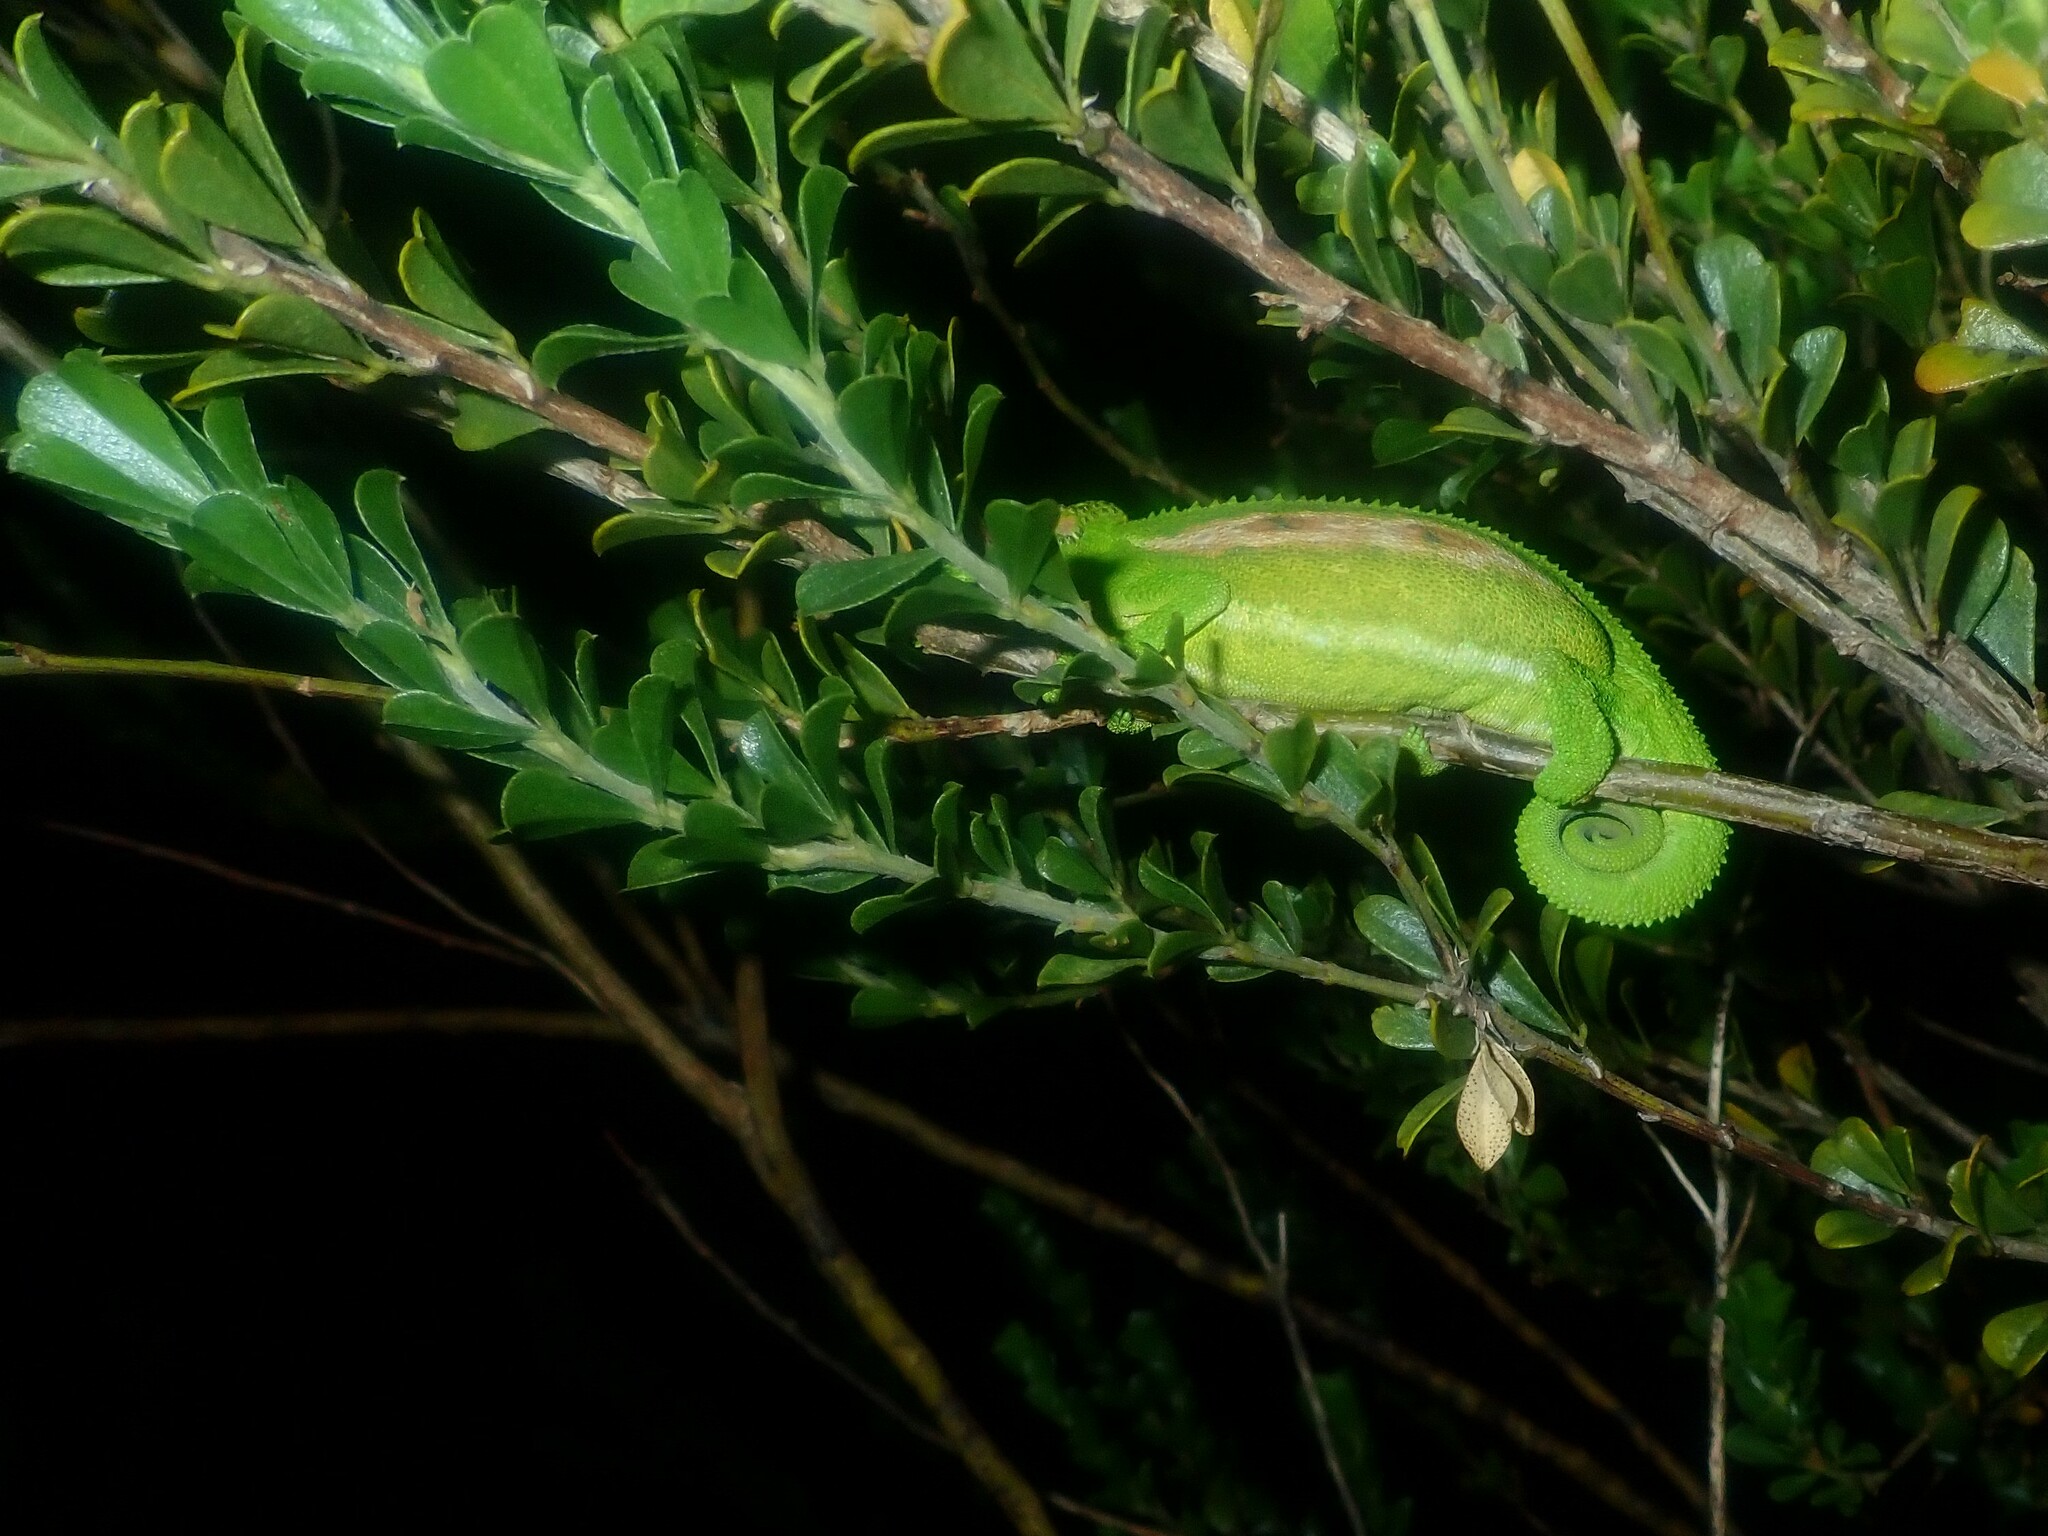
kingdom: Animalia
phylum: Chordata
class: Squamata
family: Chamaeleonidae
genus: Bradypodion
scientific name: Bradypodion pumilum
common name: Cape dwarf chameleon
